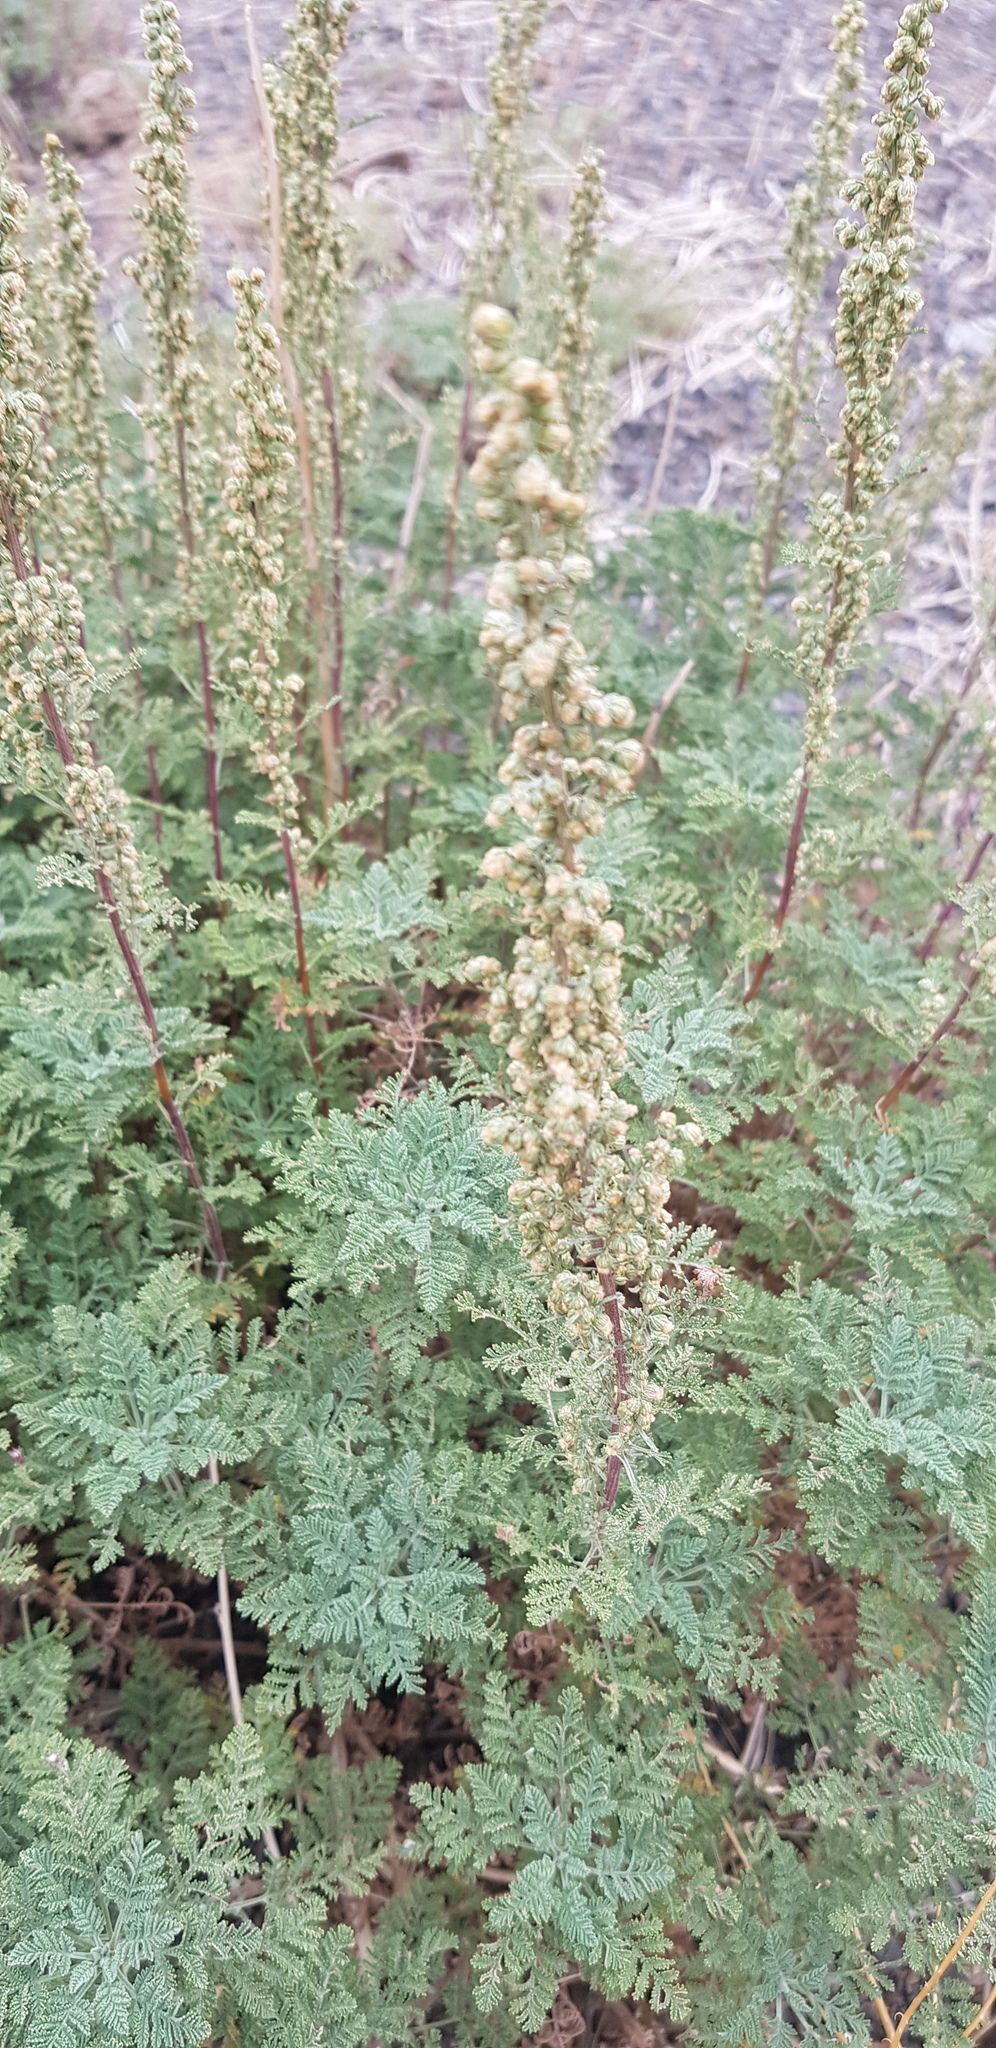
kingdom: Plantae
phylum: Tracheophyta
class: Magnoliopsida
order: Asterales
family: Asteraceae
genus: Artemisia
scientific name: Artemisia
